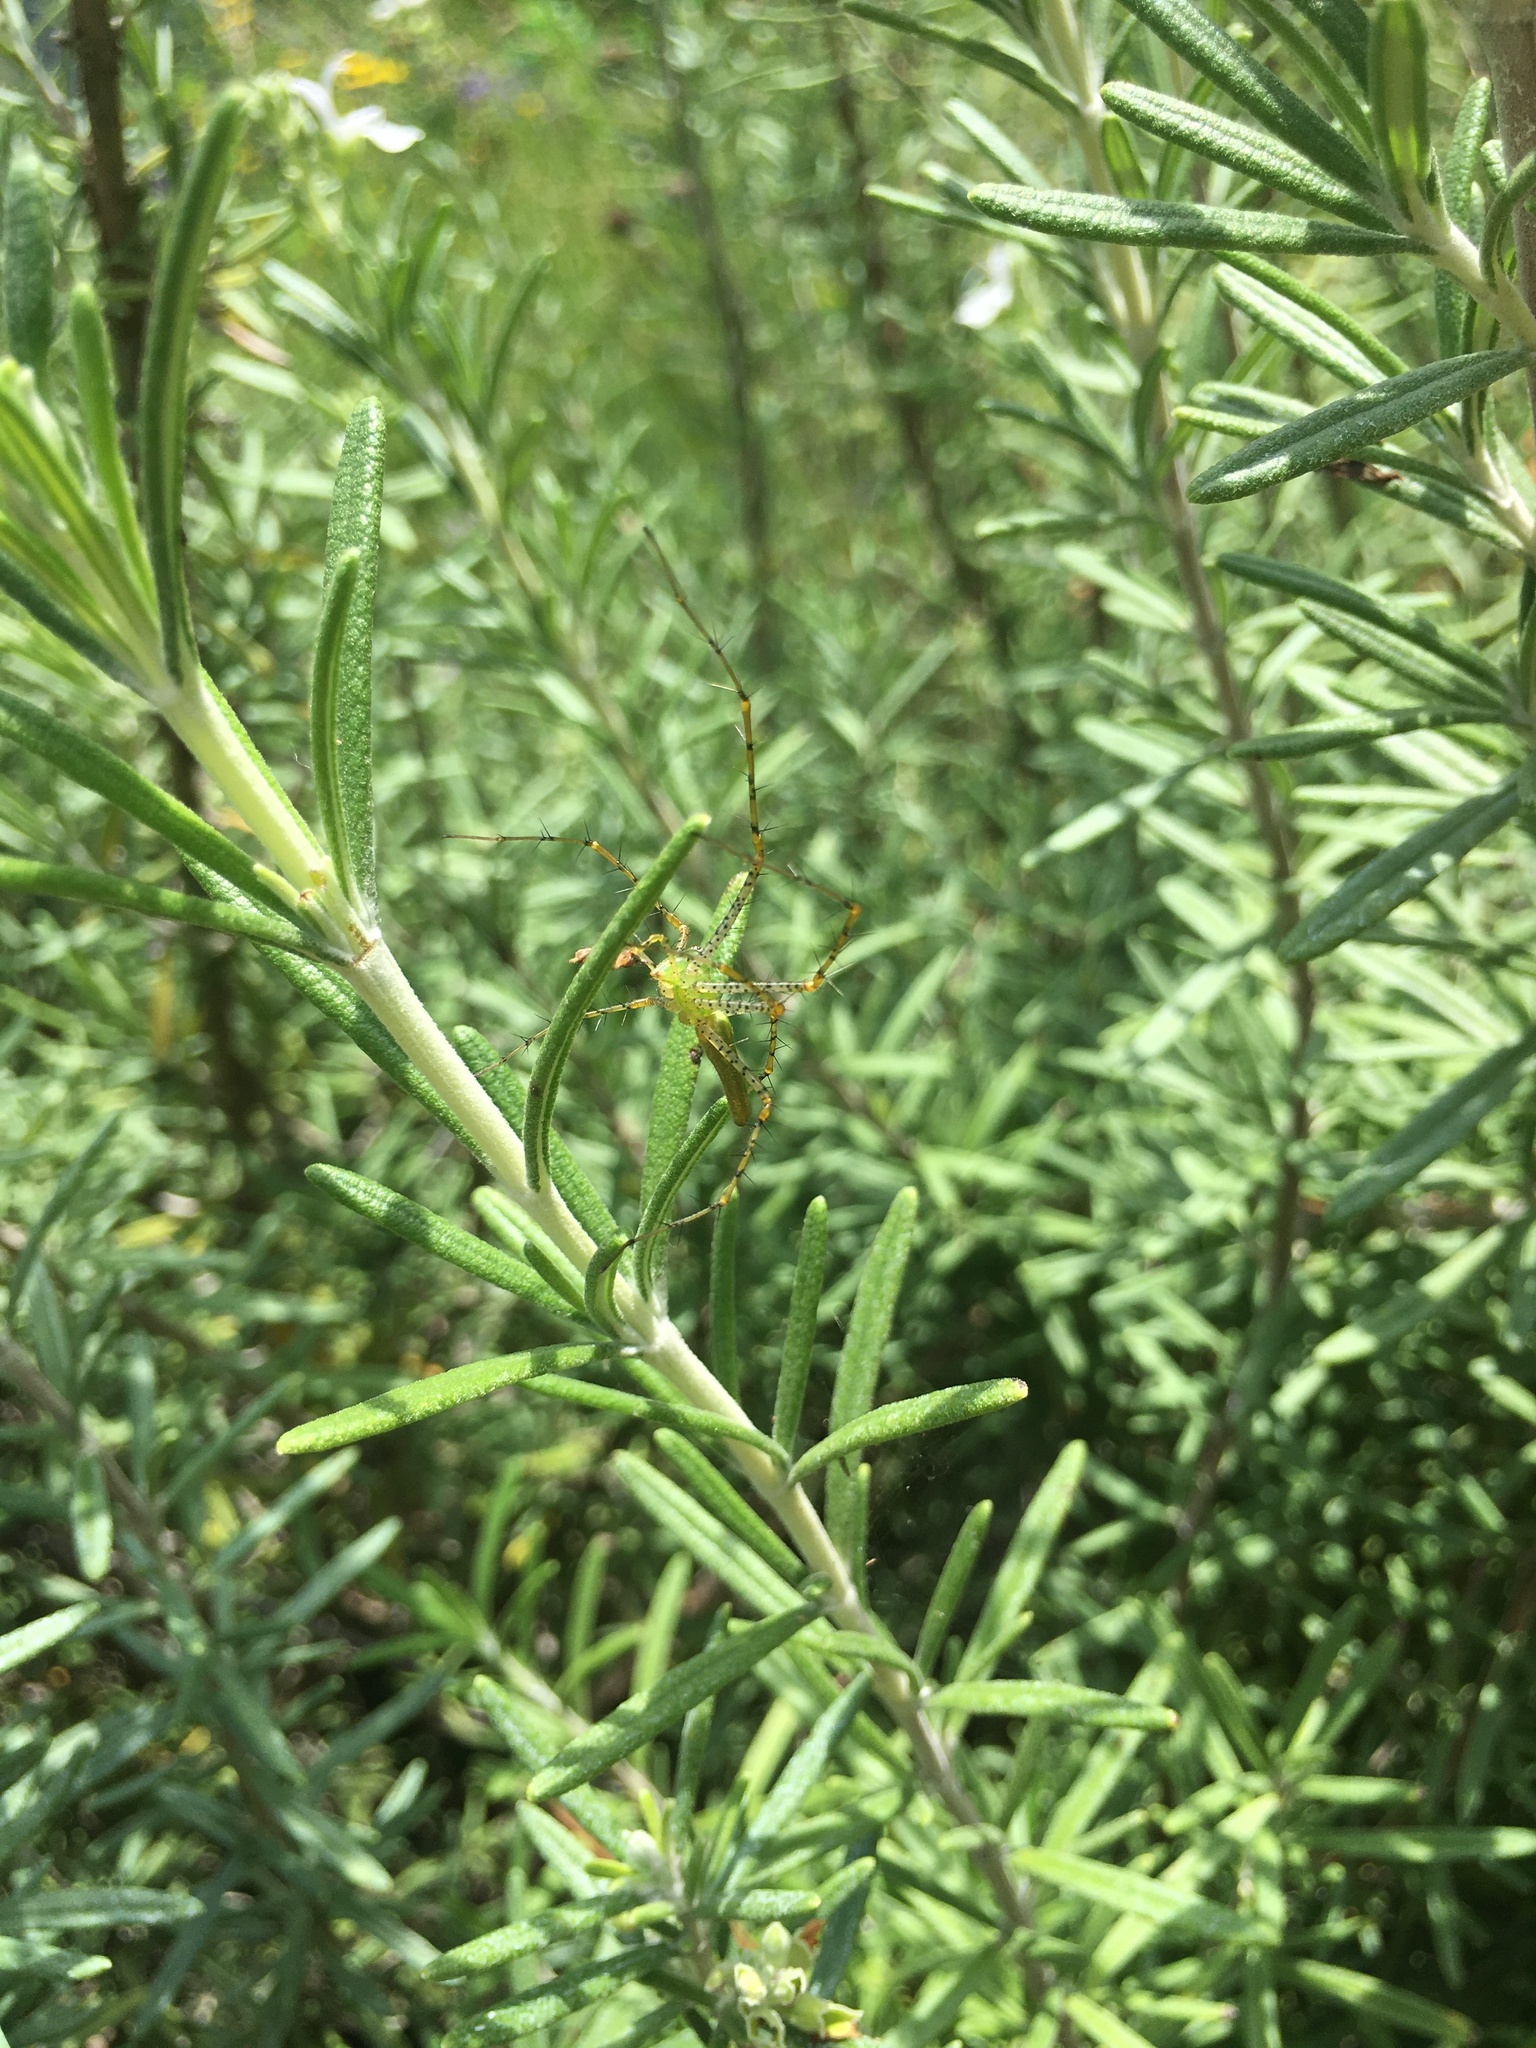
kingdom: Animalia
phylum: Arthropoda
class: Arachnida
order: Araneae
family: Oxyopidae
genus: Peucetia
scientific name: Peucetia viridans
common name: Lynx spiders
